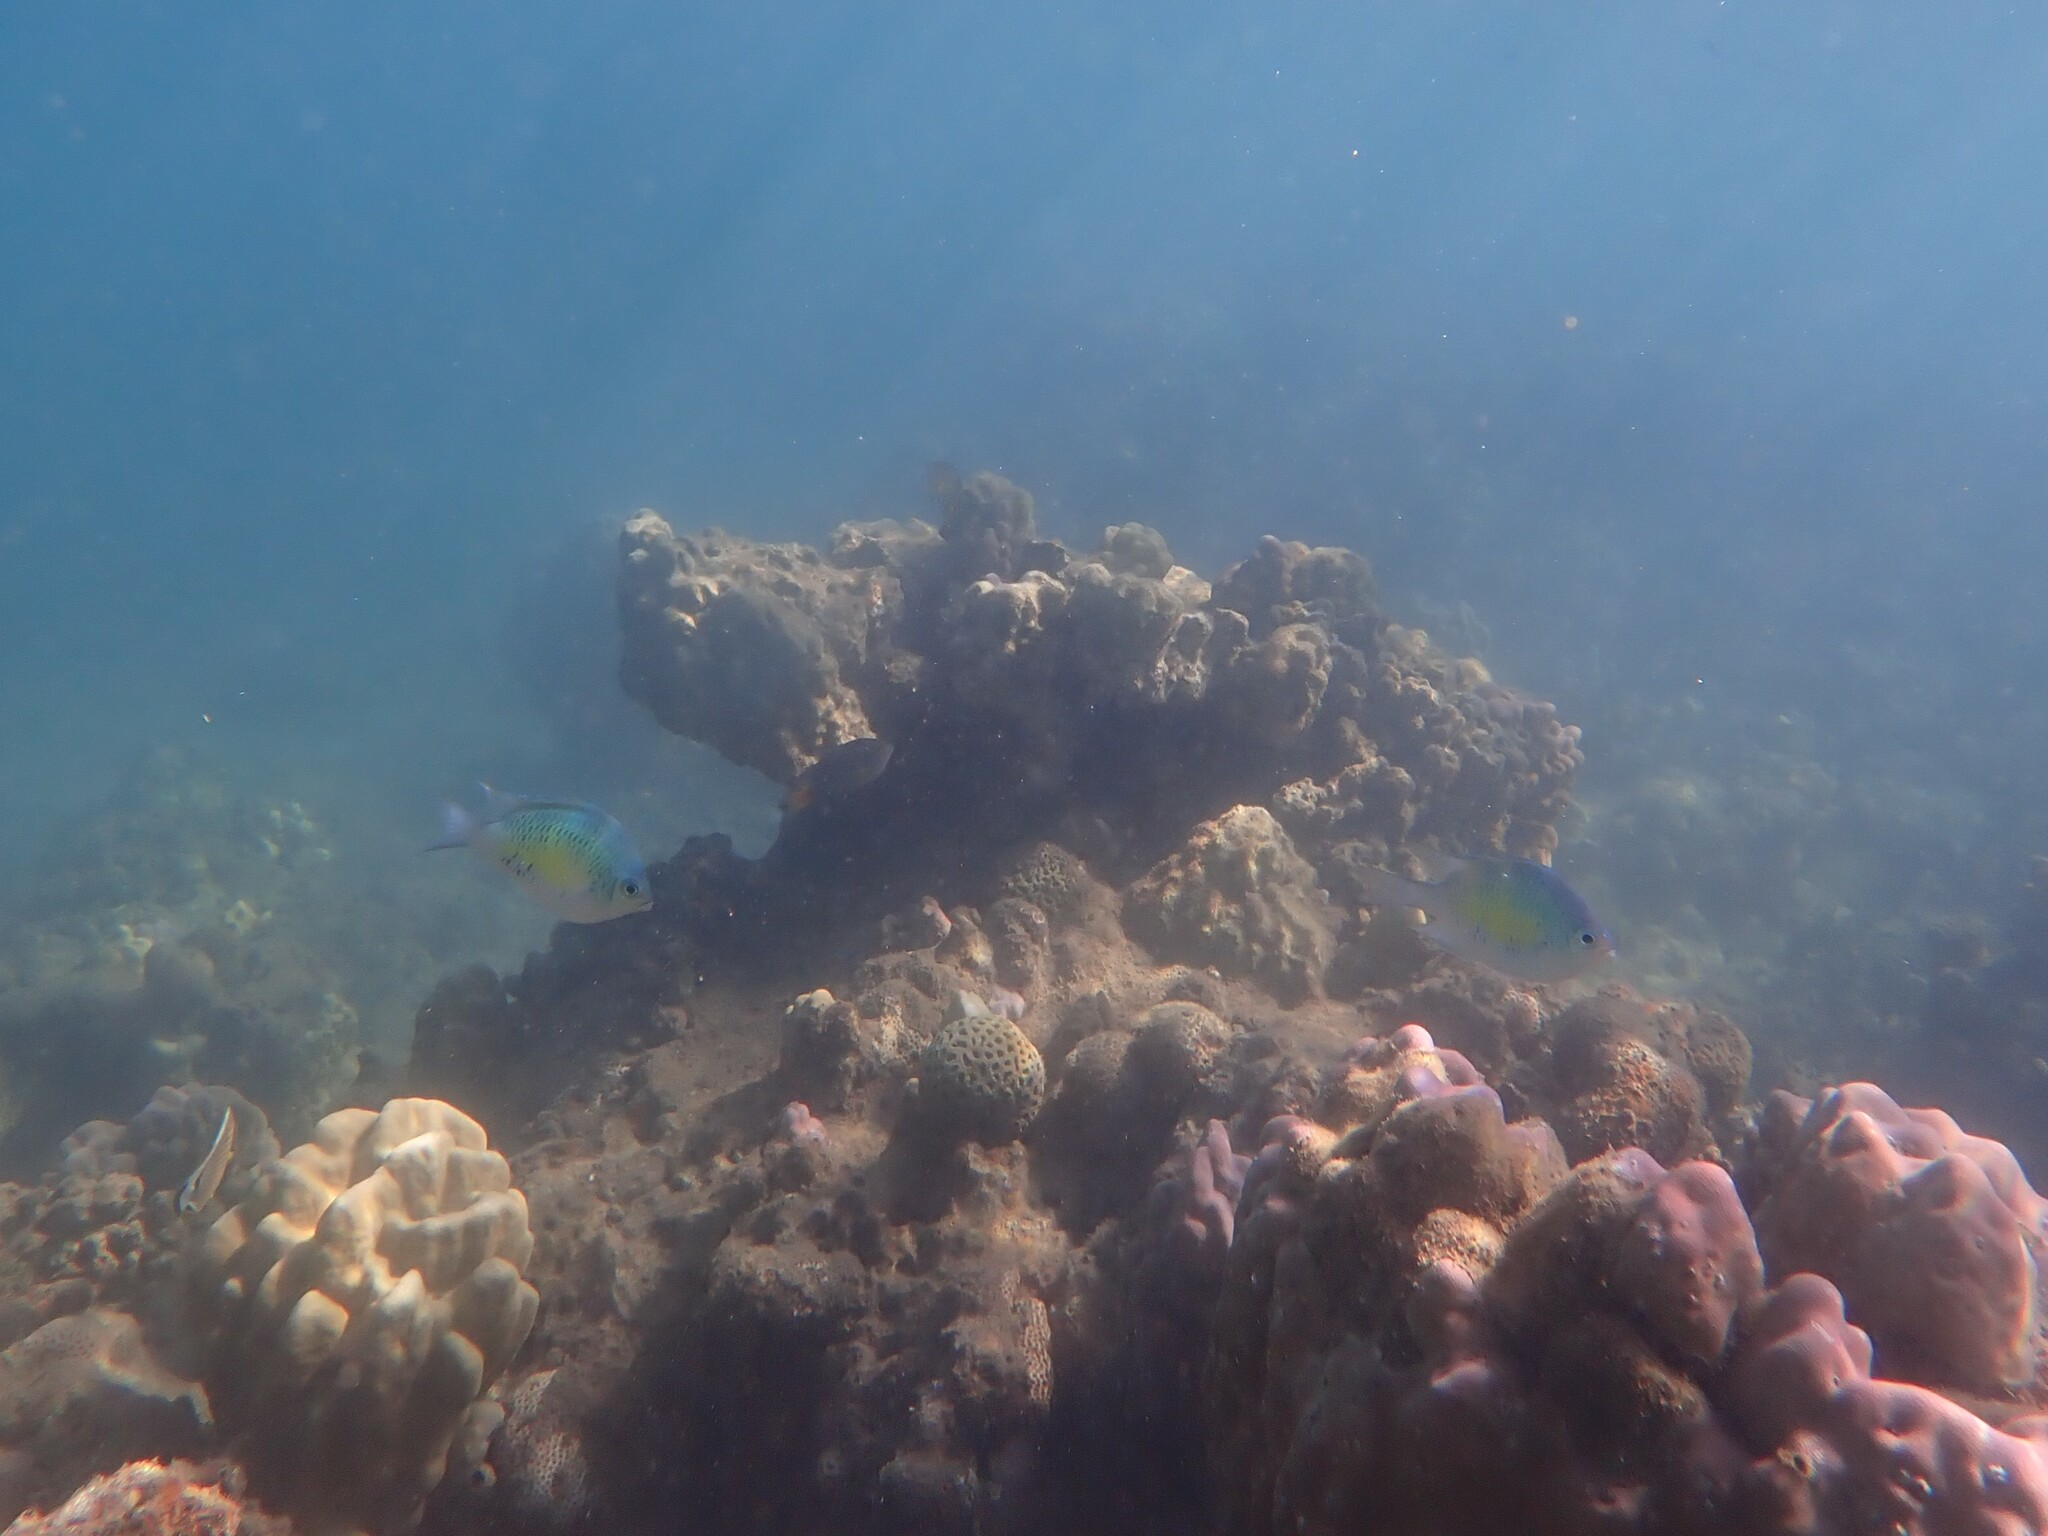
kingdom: Animalia
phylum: Chordata
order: Perciformes
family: Pomacentridae
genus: Amblyglyphidodon
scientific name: Amblyglyphidodon curacao
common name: Staghorn damsel
